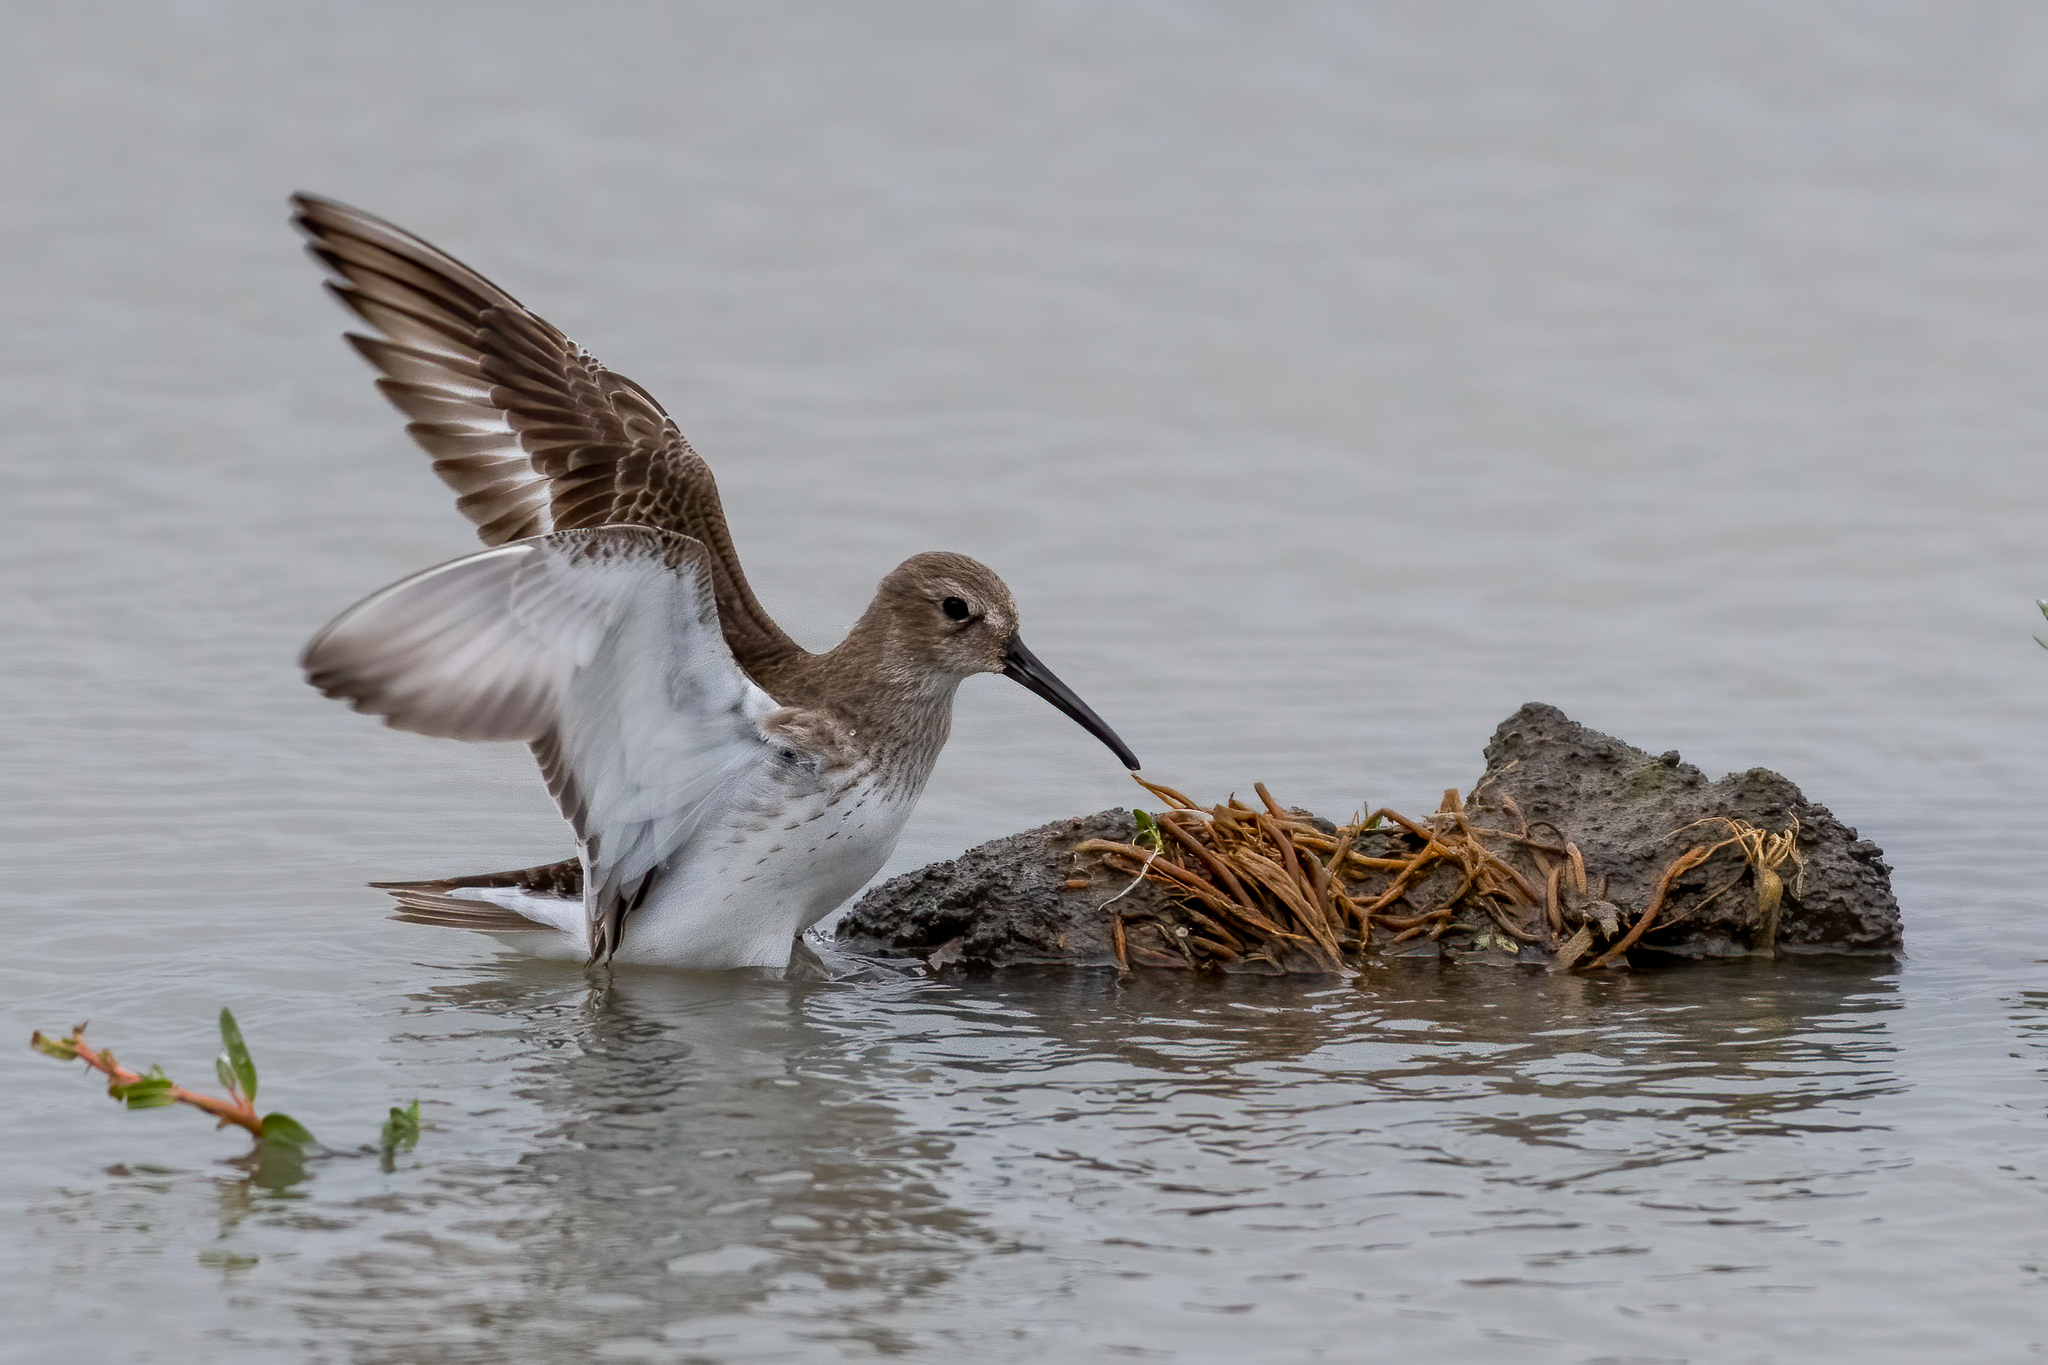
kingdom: Animalia
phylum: Chordata
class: Aves
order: Charadriiformes
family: Scolopacidae
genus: Calidris
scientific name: Calidris alpina
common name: Dunlin
